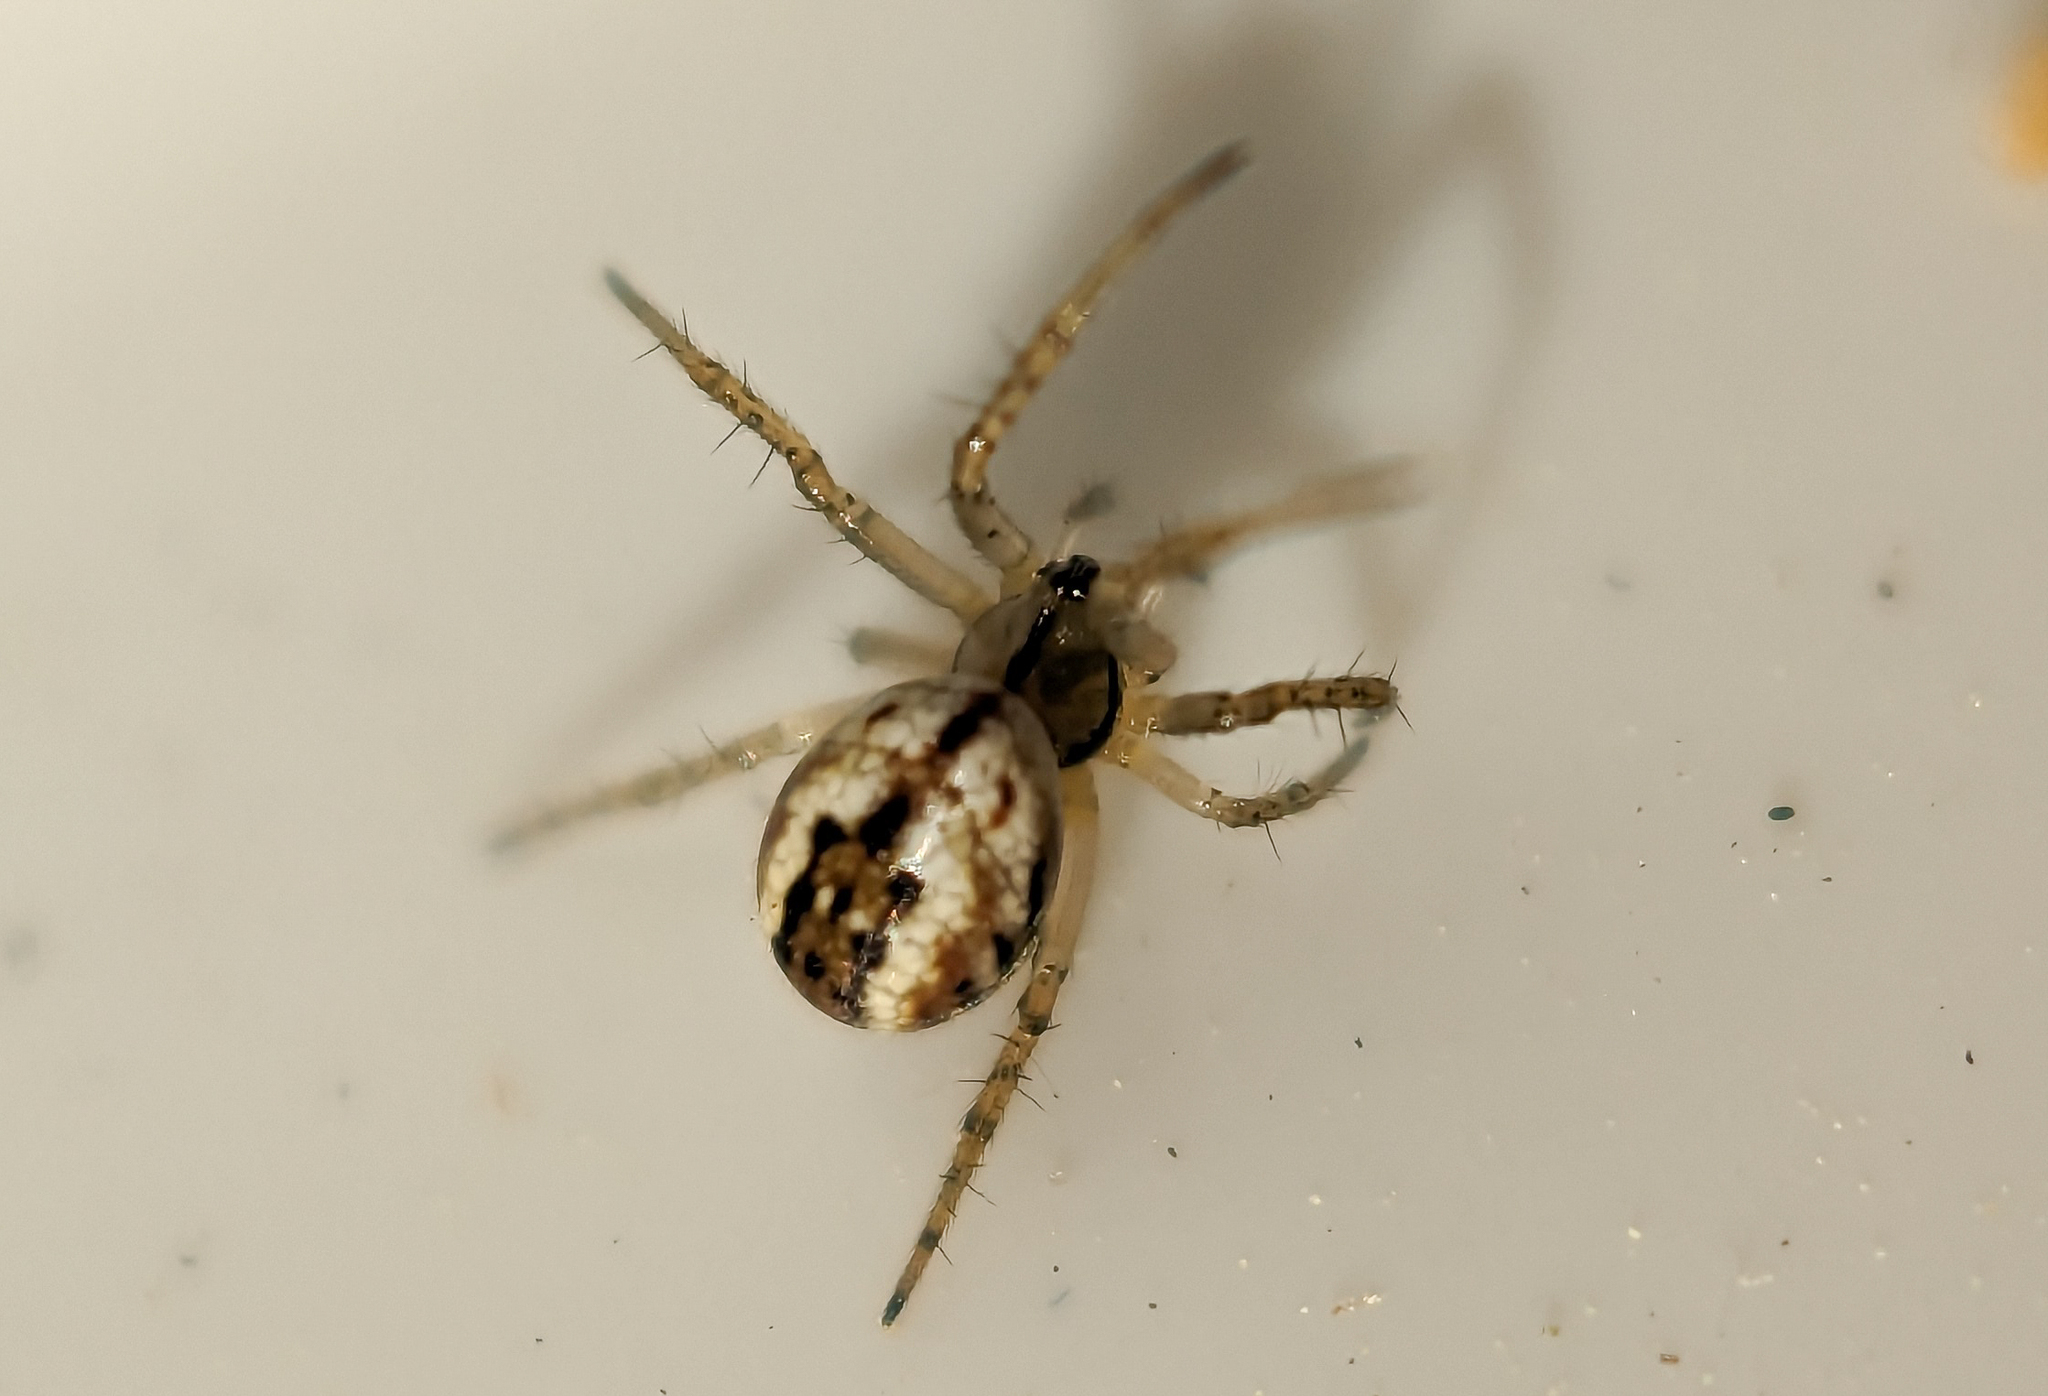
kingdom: Animalia
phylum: Arthropoda
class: Arachnida
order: Araneae
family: Araneidae
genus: Mangora
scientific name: Mangora acalypha
